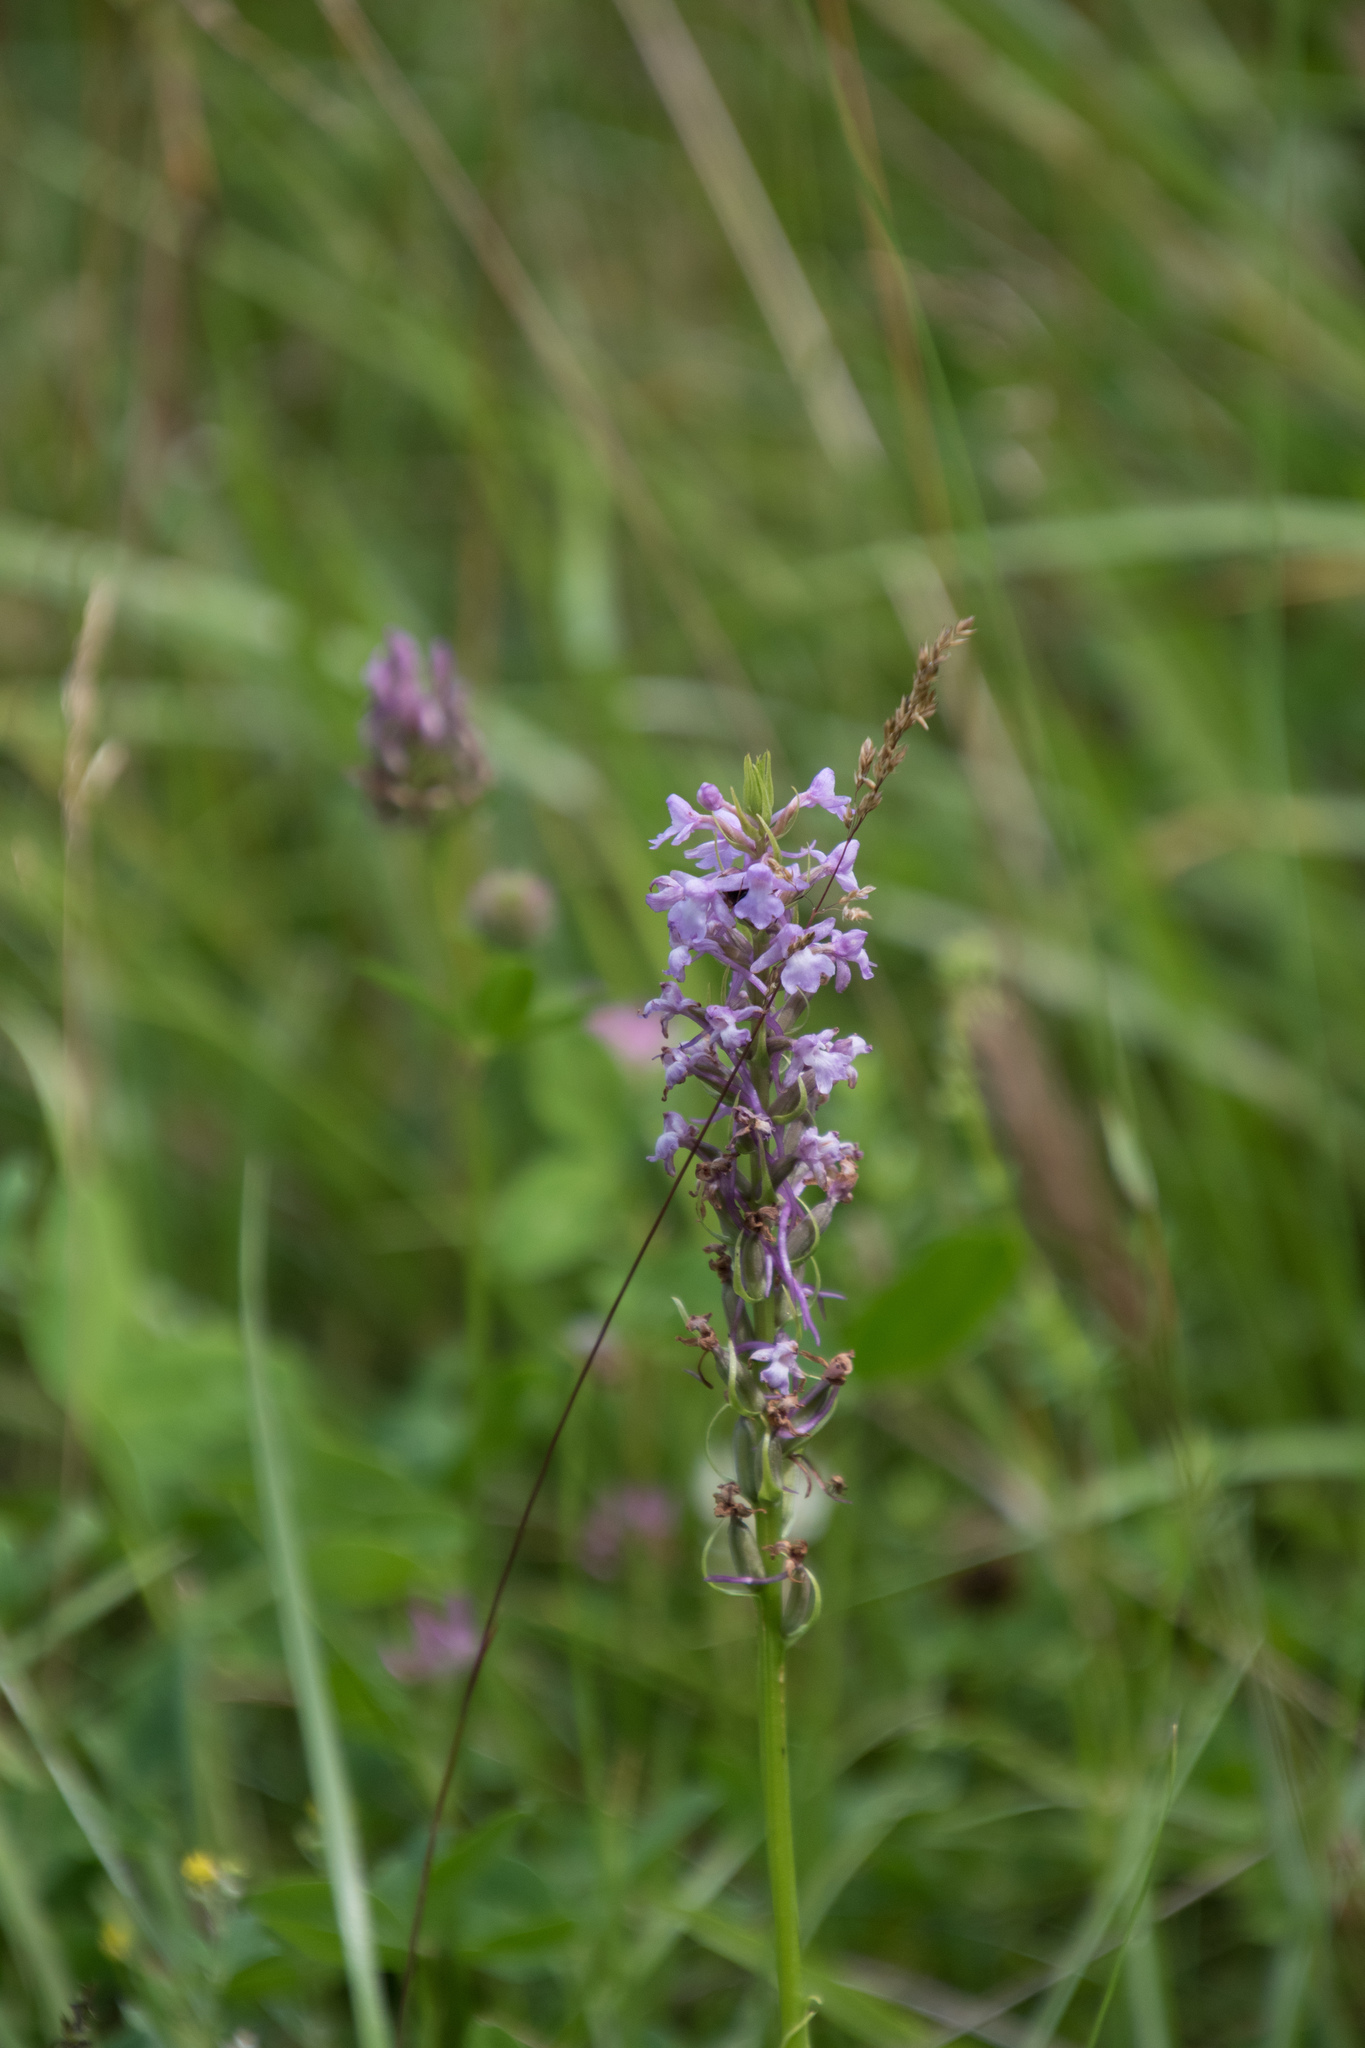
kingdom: Plantae
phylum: Tracheophyta
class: Liliopsida
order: Asparagales
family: Orchidaceae
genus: Gymnadenia
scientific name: Gymnadenia conopsea
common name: Fragrant orchid
